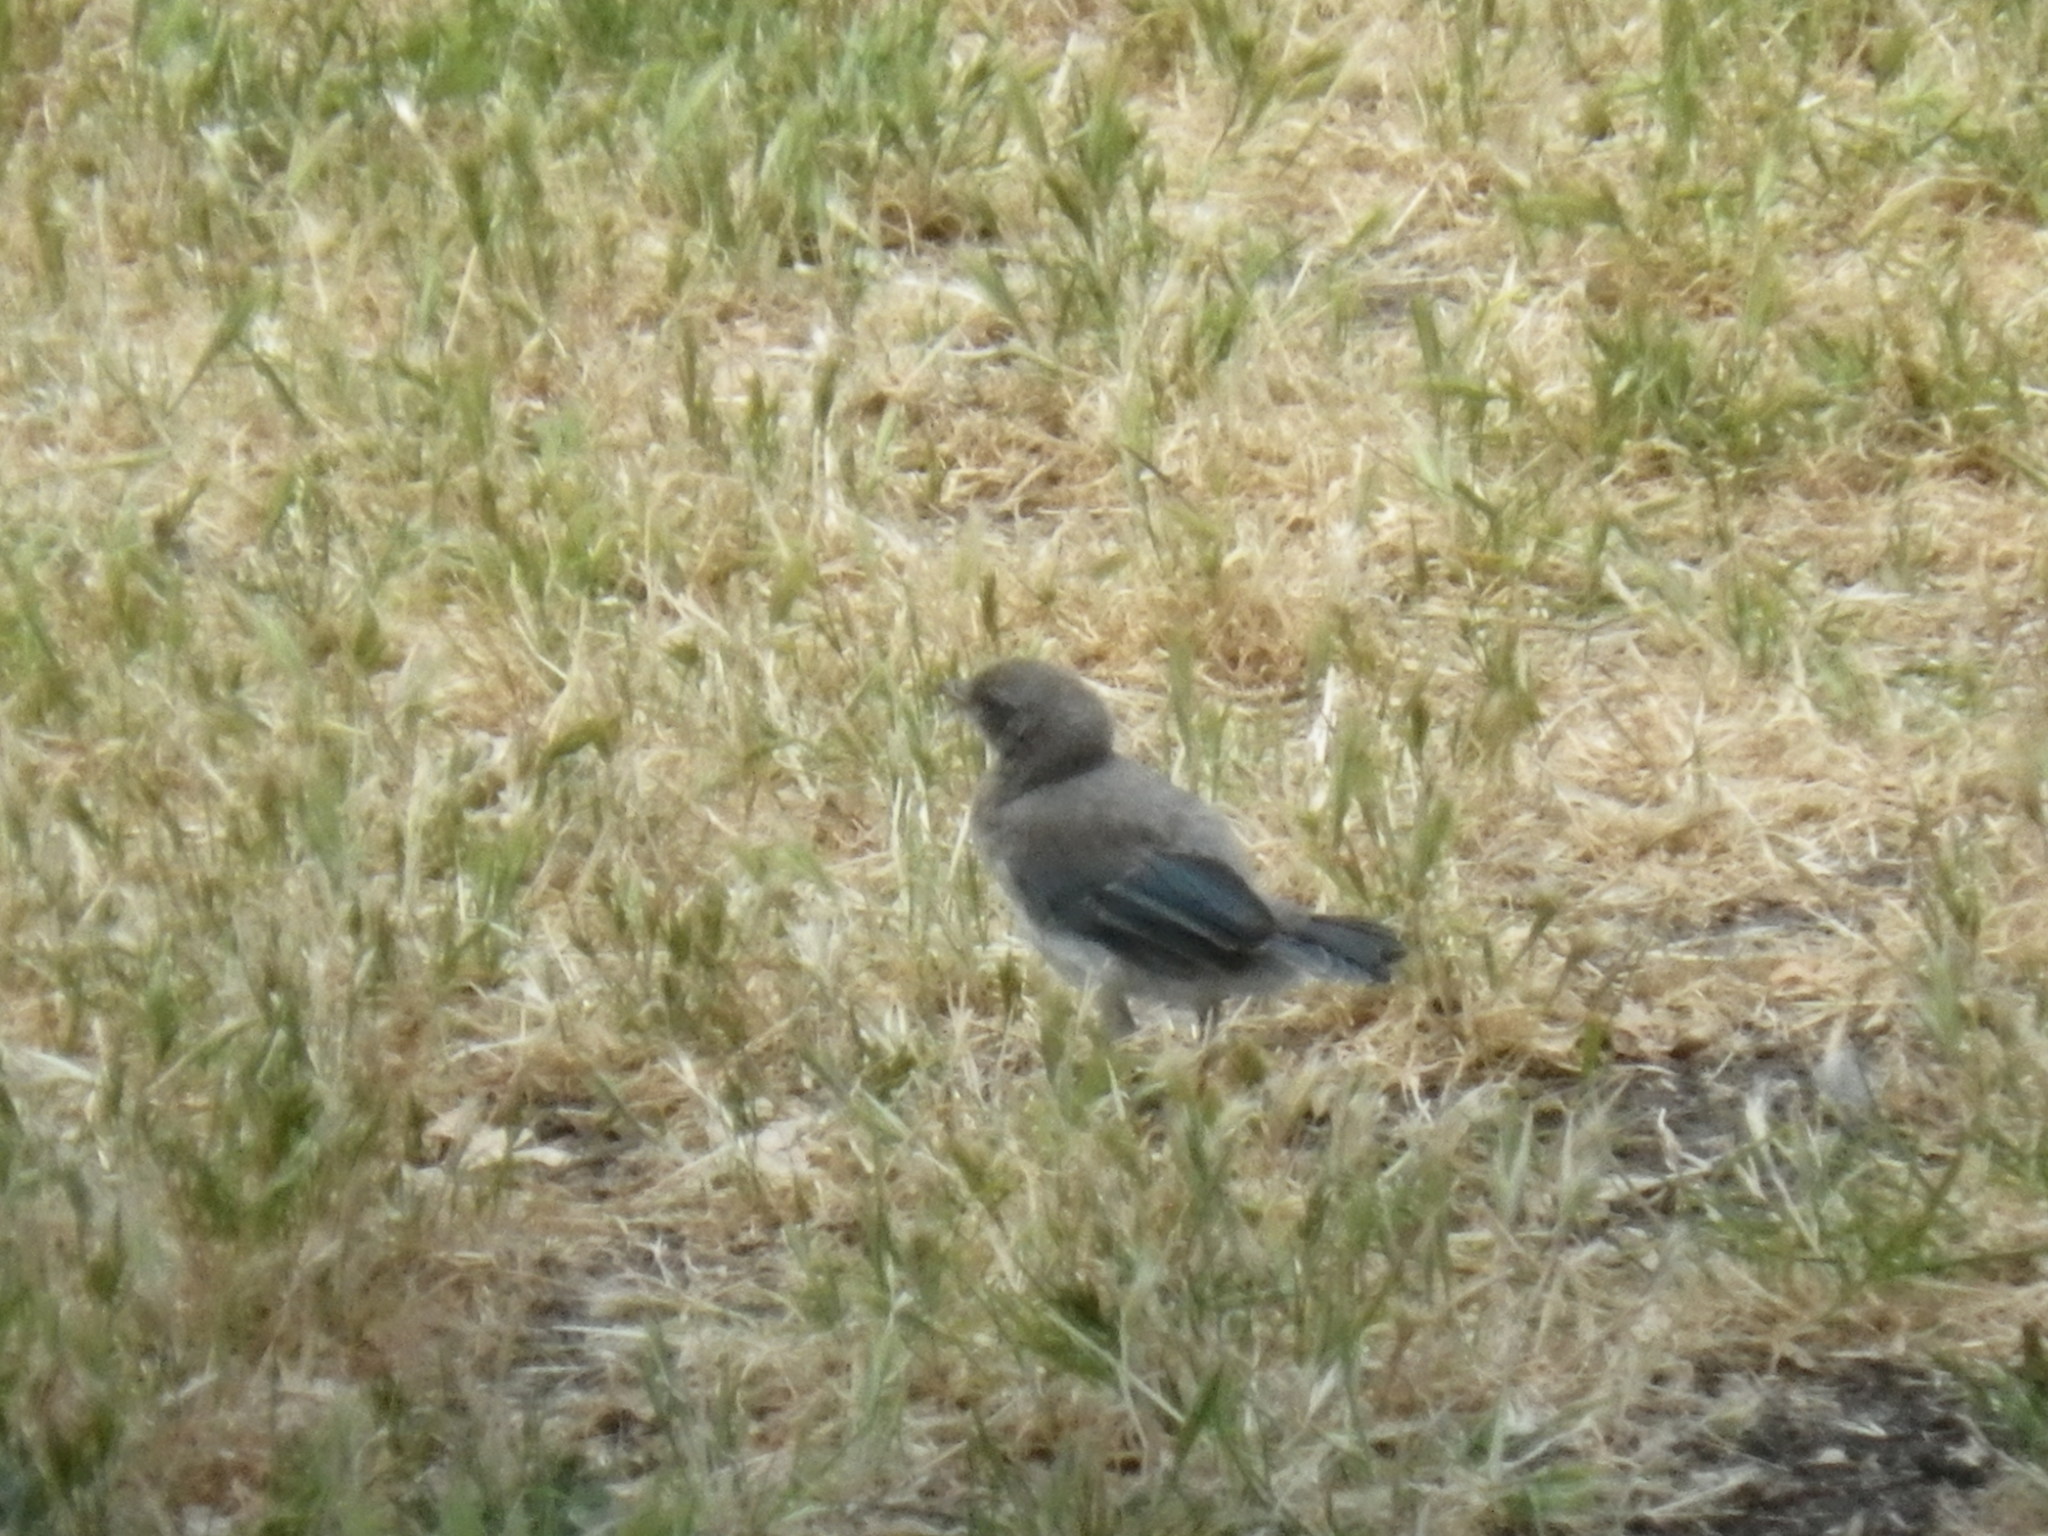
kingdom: Animalia
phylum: Chordata
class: Aves
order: Passeriformes
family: Corvidae
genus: Aphelocoma
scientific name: Aphelocoma californica
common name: California scrub-jay
